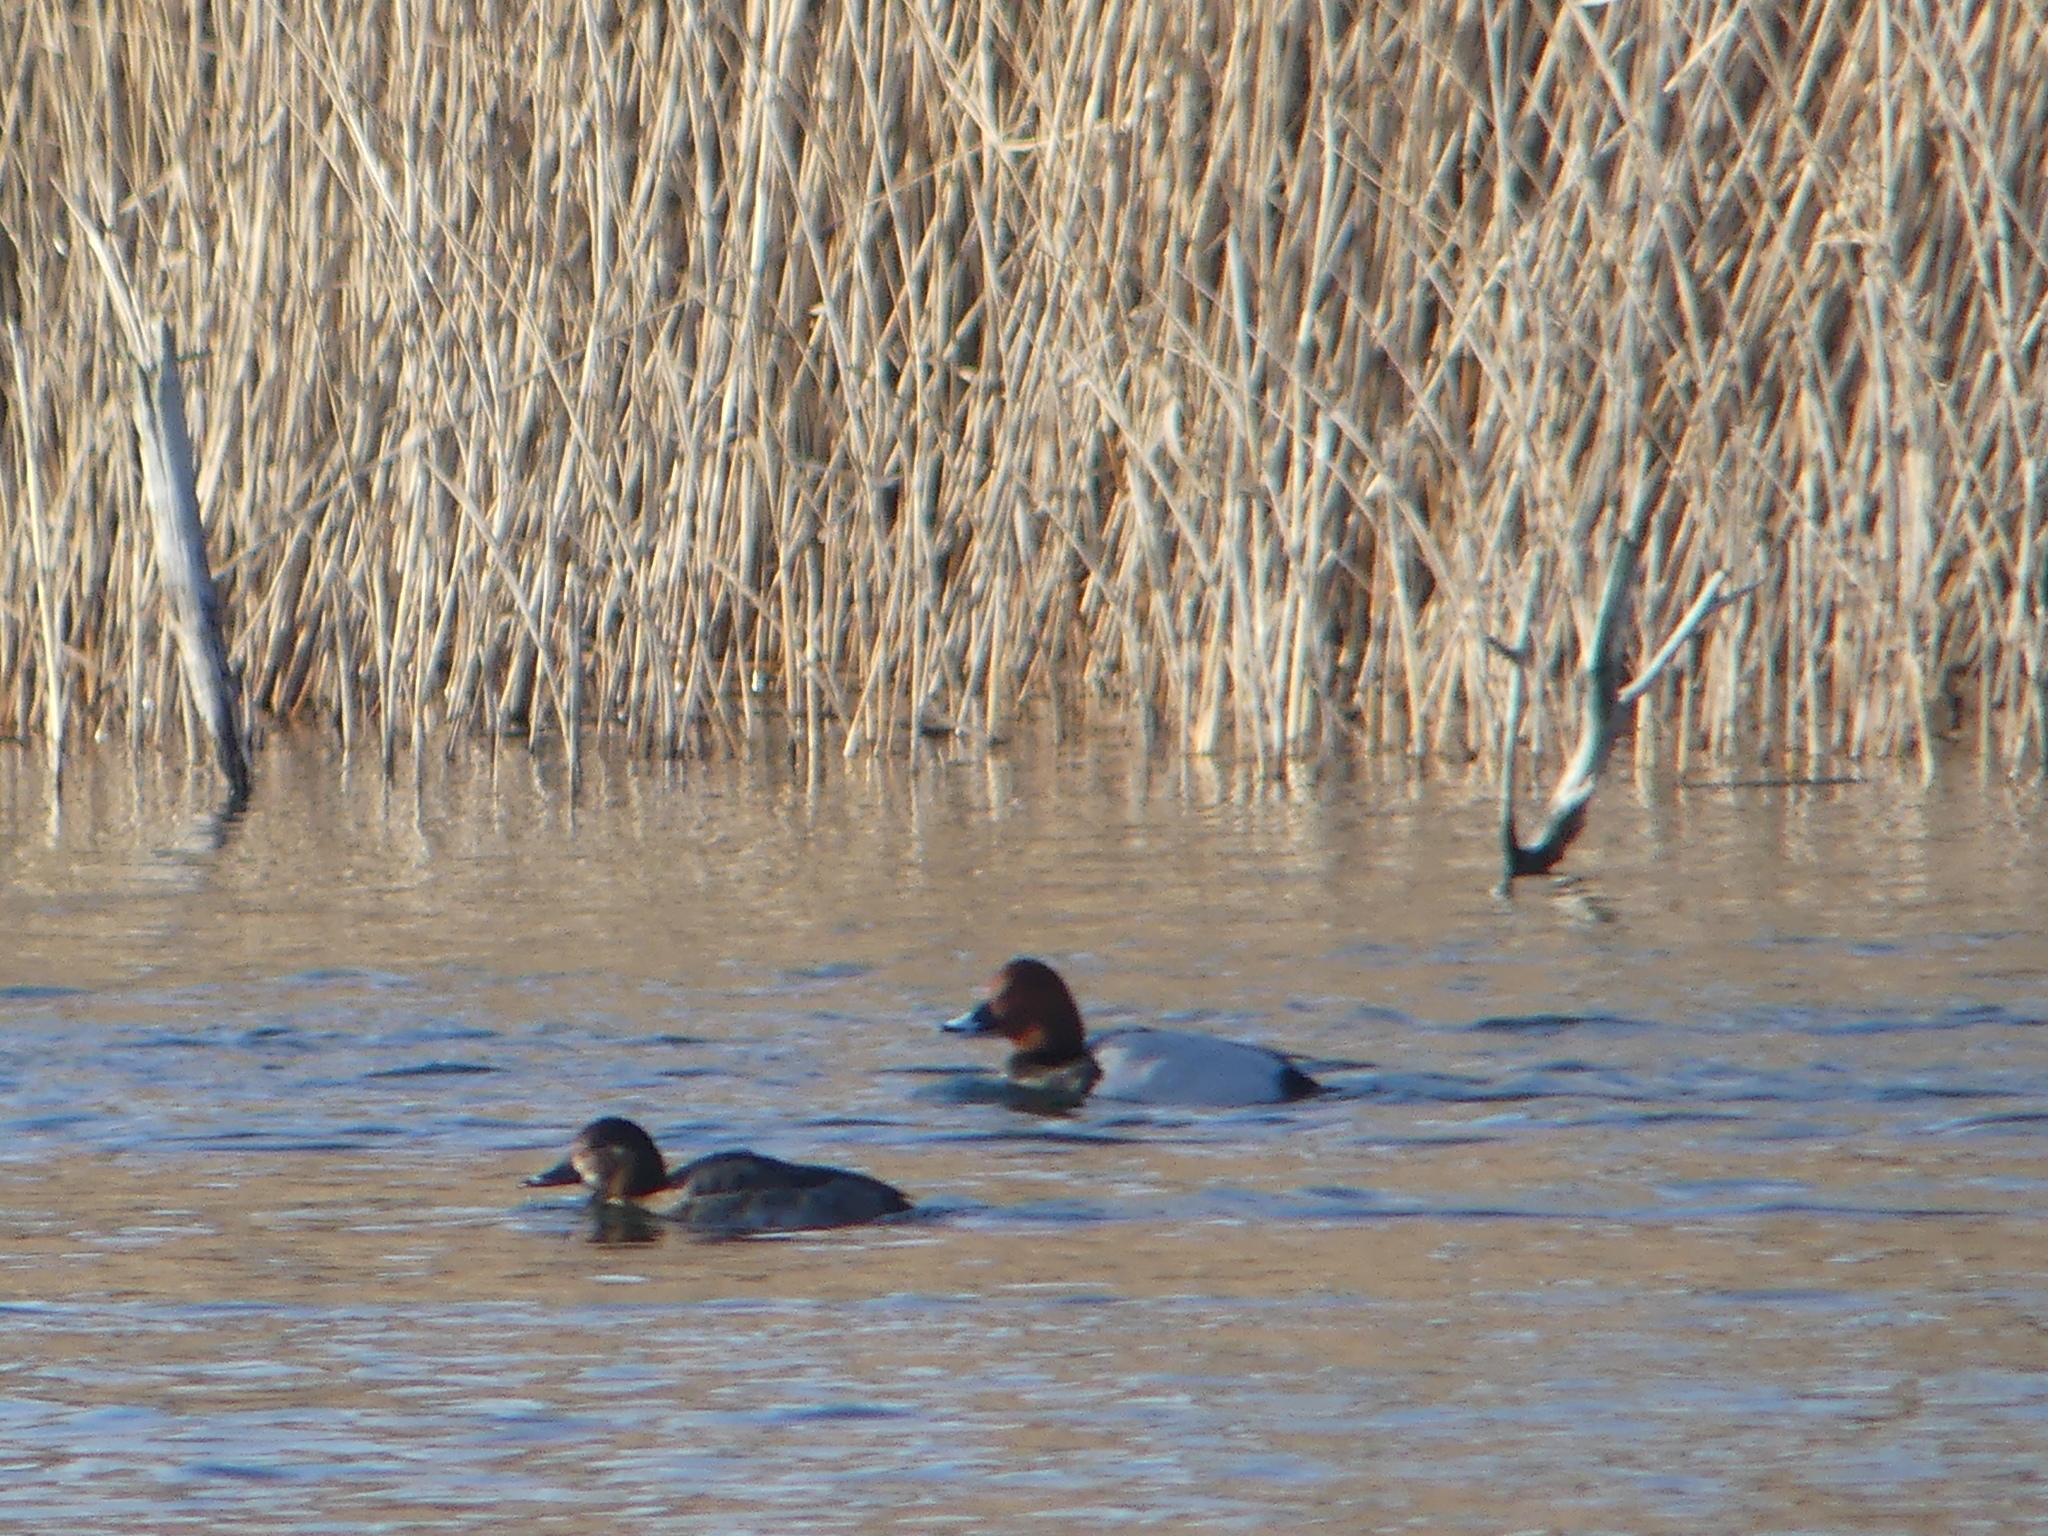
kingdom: Animalia
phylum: Chordata
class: Aves
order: Anseriformes
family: Anatidae
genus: Aythya
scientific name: Aythya ferina
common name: Common pochard
